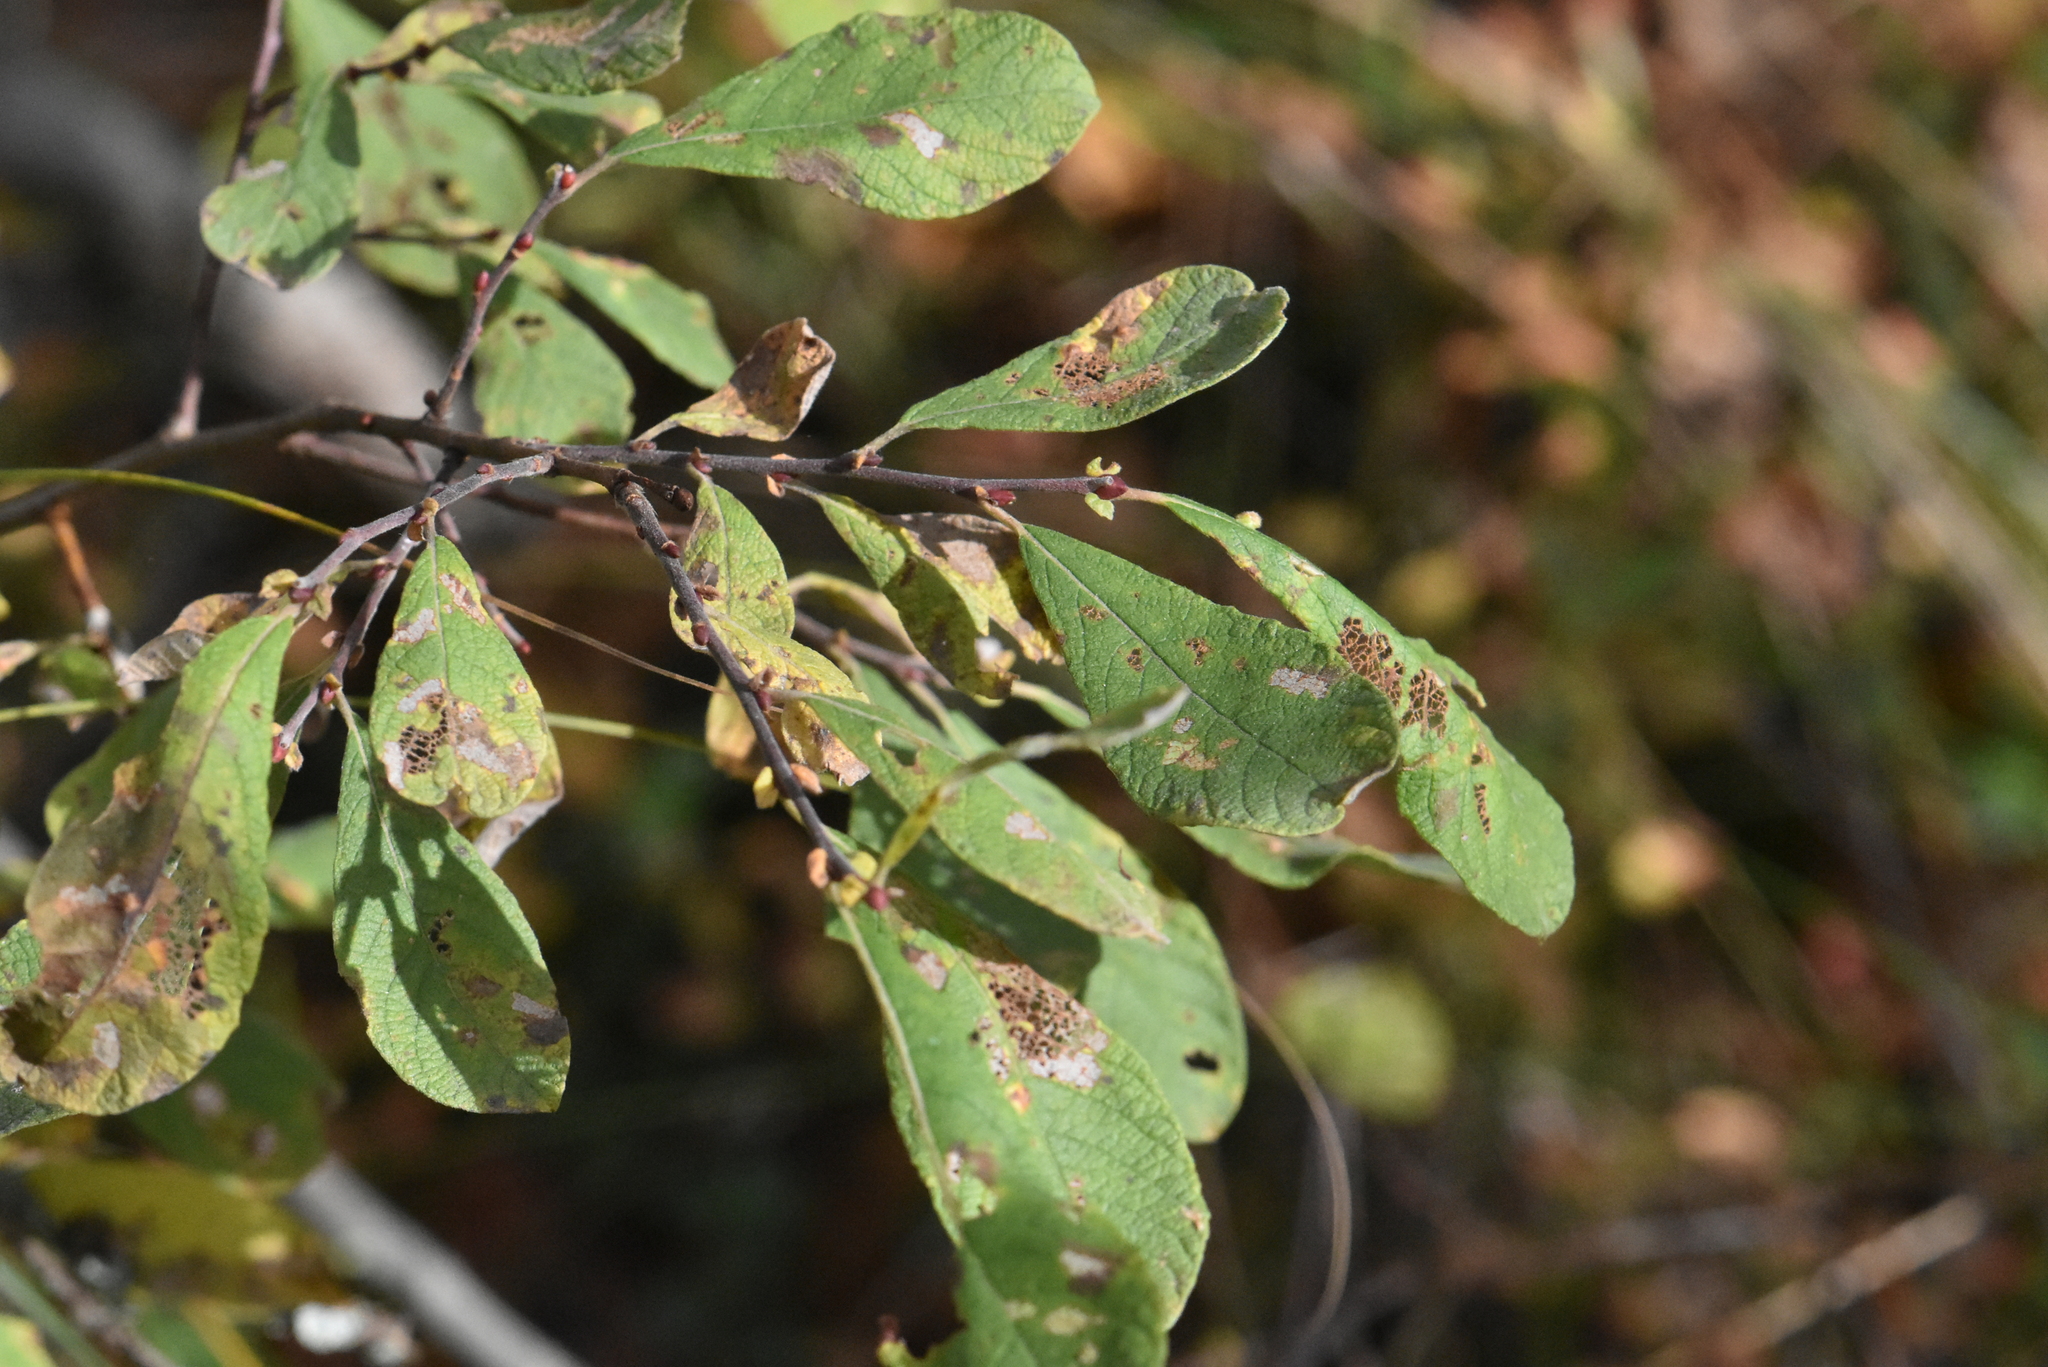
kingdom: Plantae
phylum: Tracheophyta
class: Magnoliopsida
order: Malpighiales
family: Salicaceae
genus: Salix
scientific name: Salix aurita
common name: Eared willow
